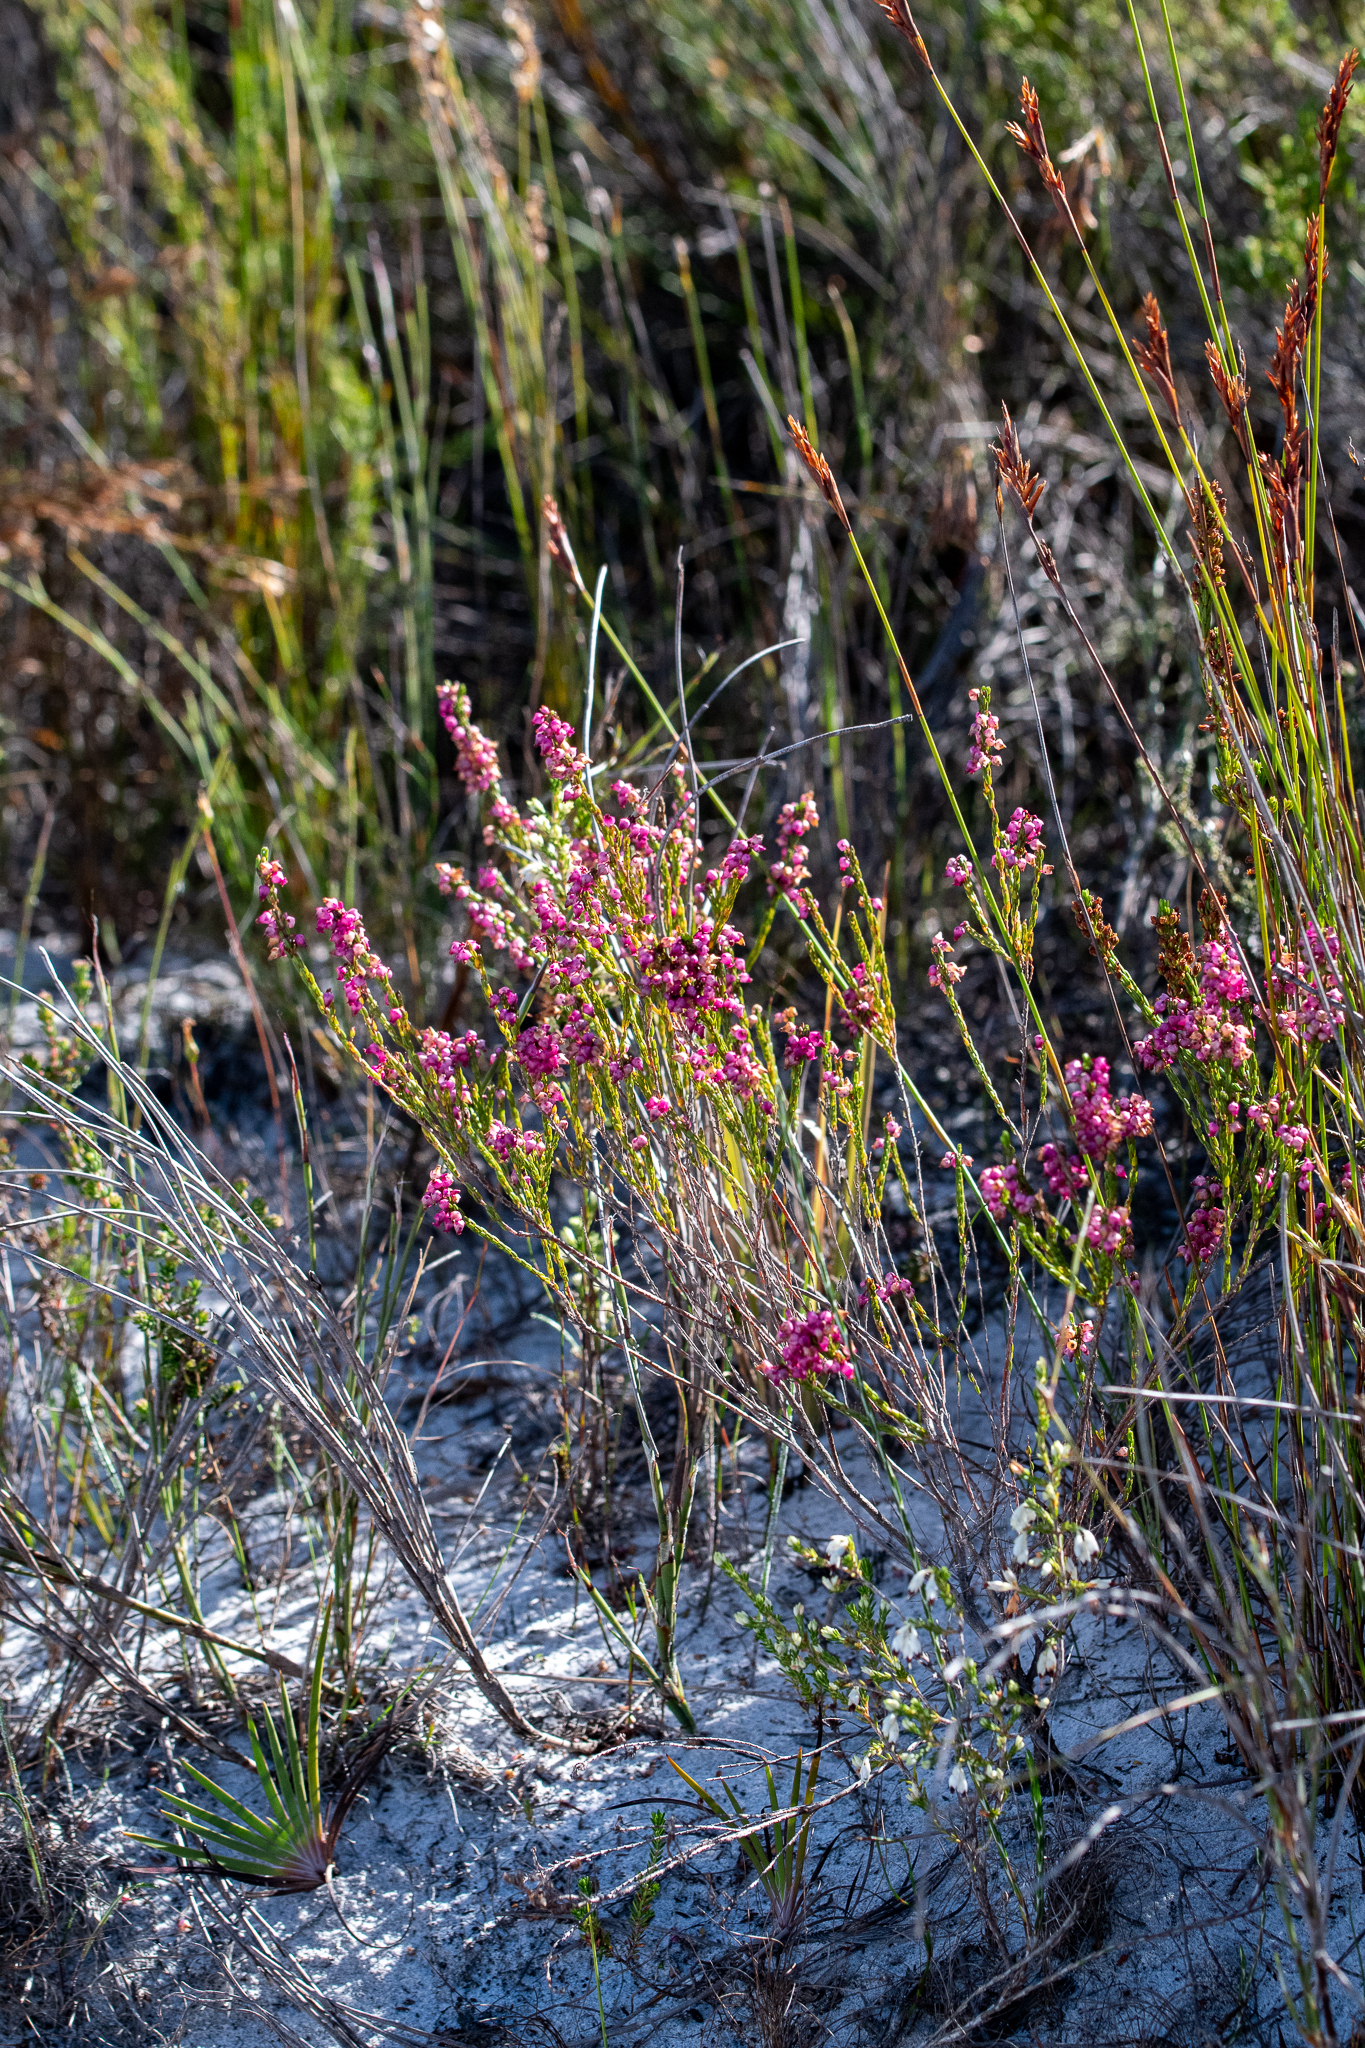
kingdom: Plantae
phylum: Tracheophyta
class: Magnoliopsida
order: Ericales
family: Ericaceae
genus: Erica
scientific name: Erica rhopalantha
